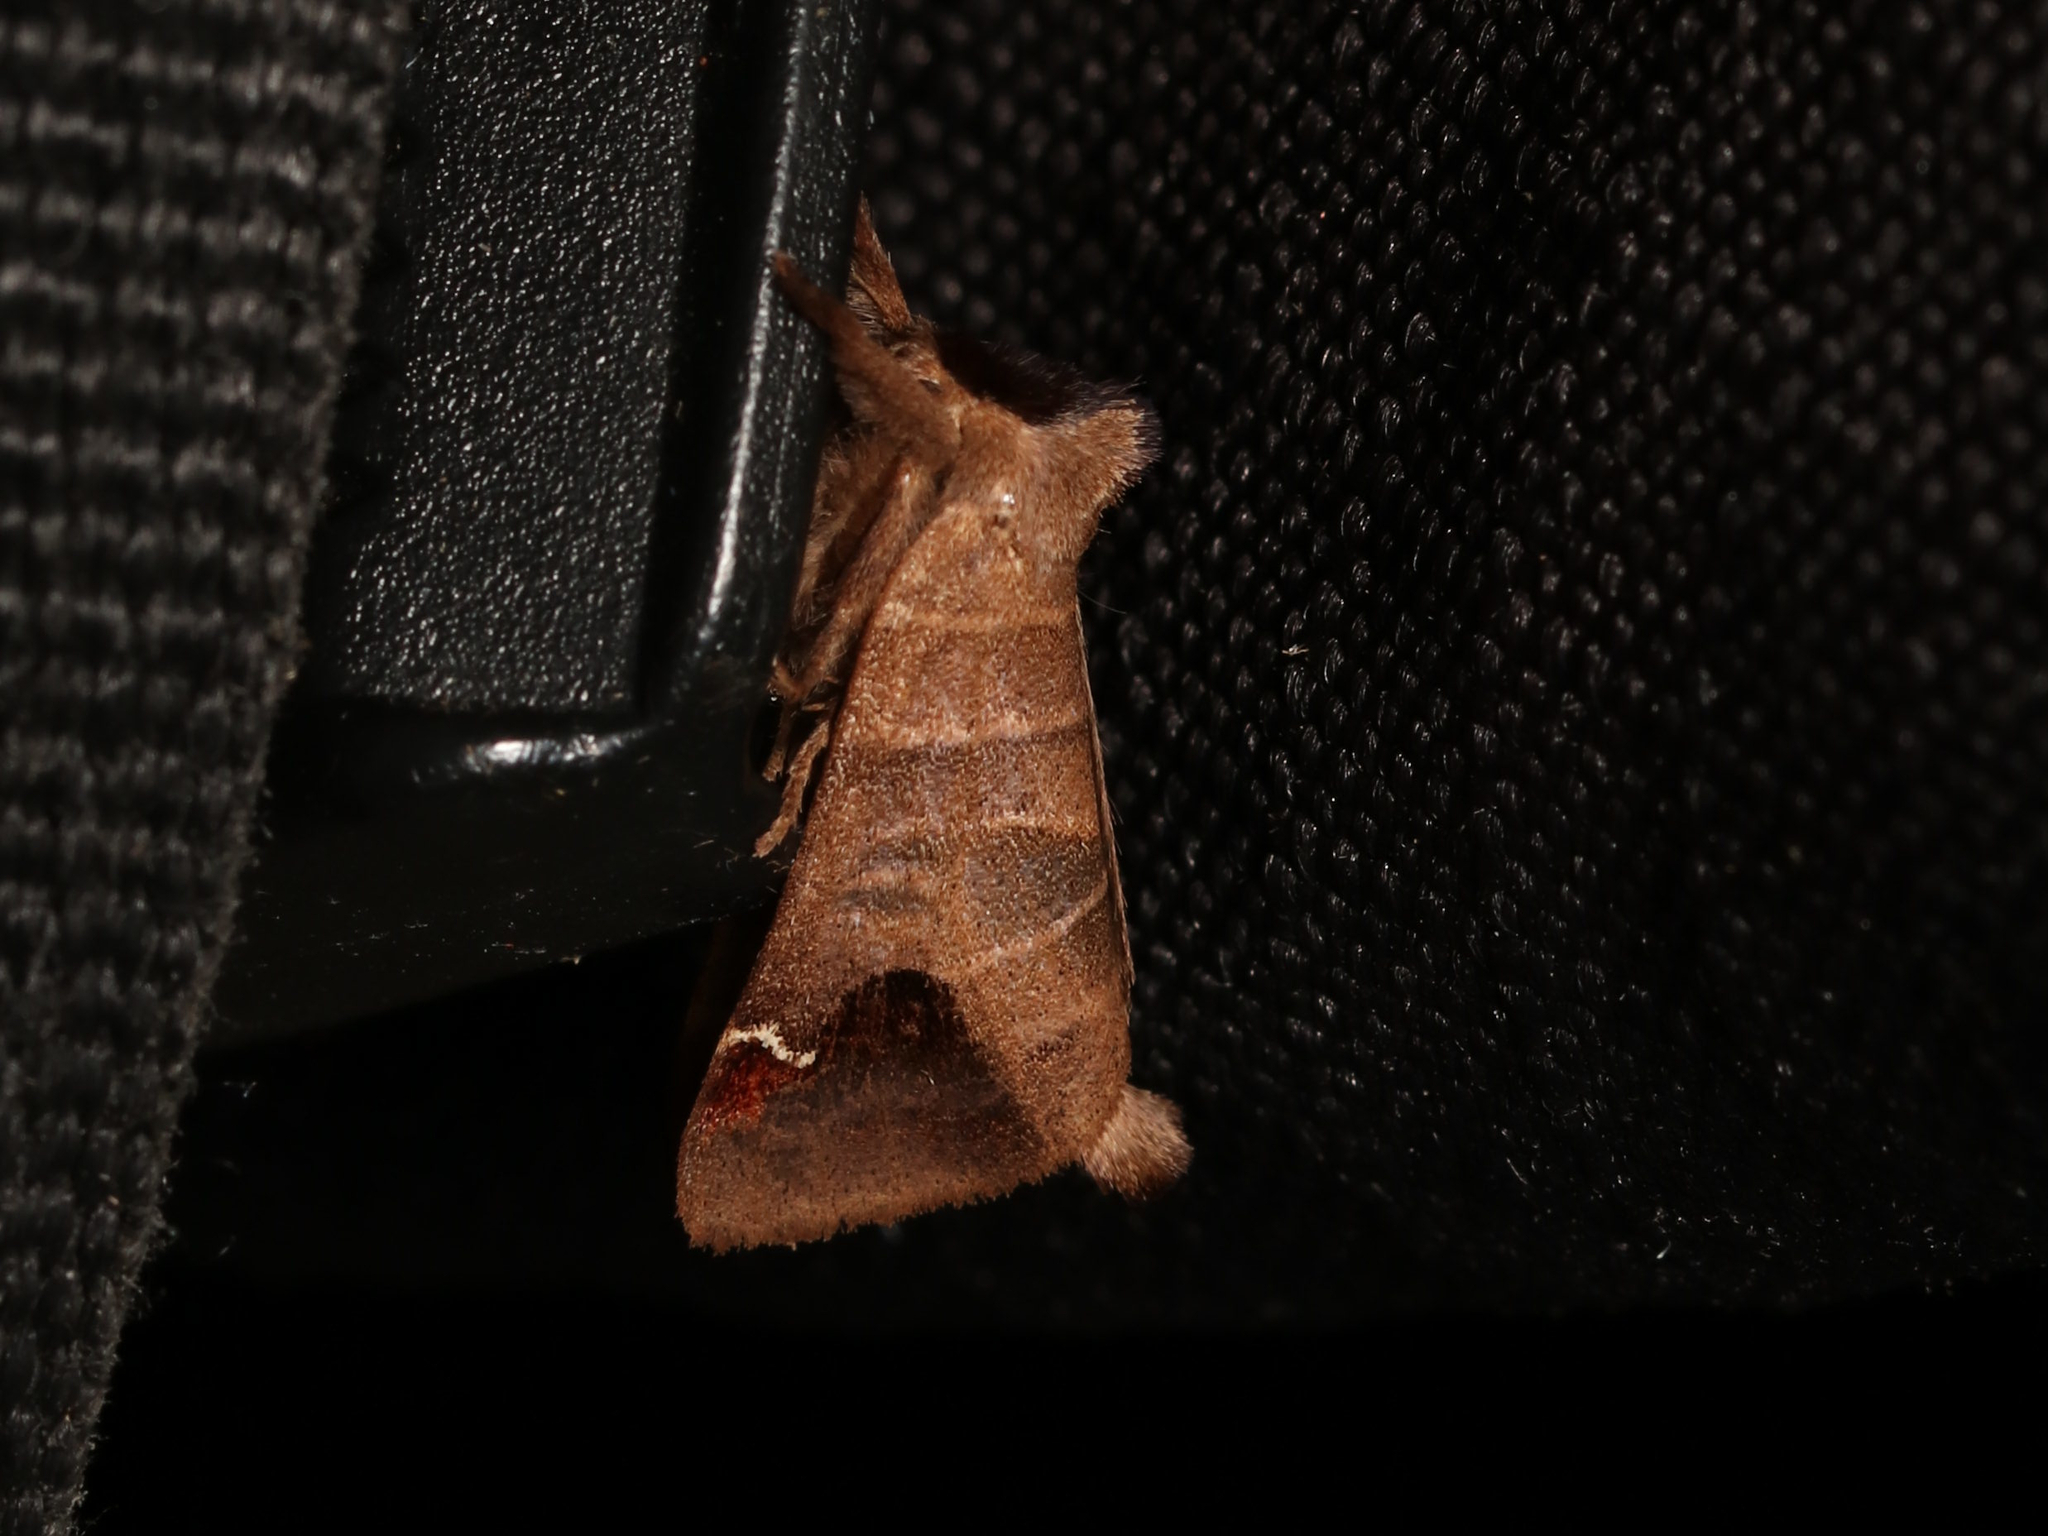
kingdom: Animalia
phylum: Arthropoda
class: Insecta
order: Lepidoptera
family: Notodontidae
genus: Clostera
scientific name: Clostera albosigma
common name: Sigmoid prominent
